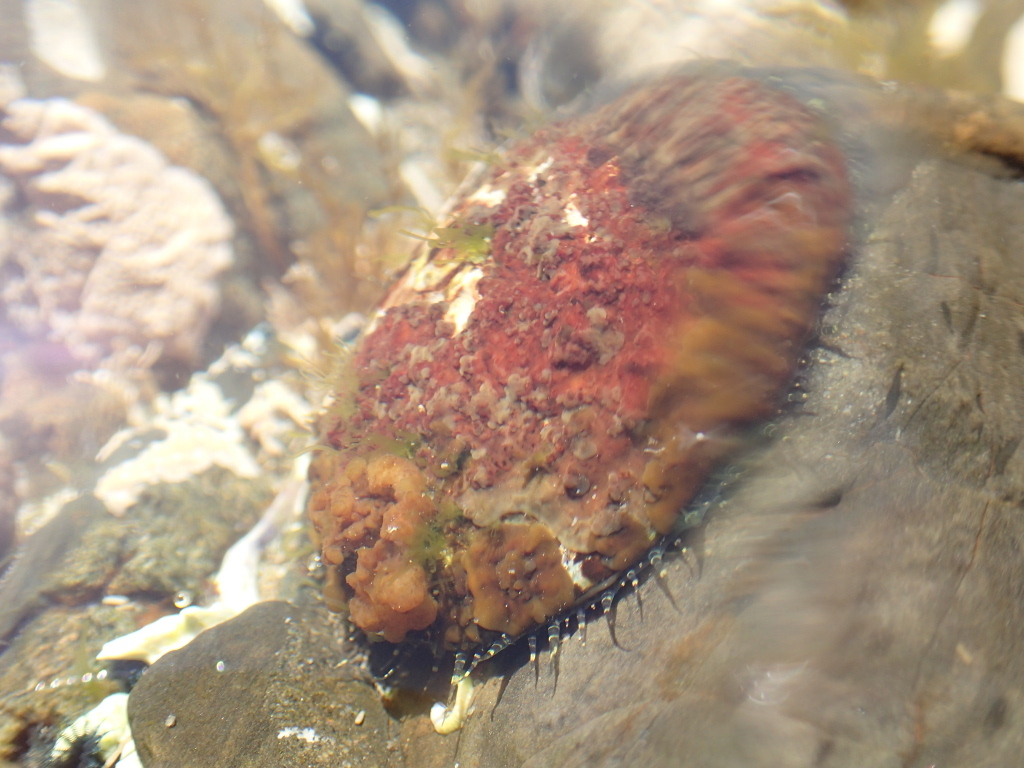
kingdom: Animalia
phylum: Mollusca
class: Gastropoda
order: Lepetellida
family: Haliotidae
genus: Haliotis
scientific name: Haliotis virginea
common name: Whitefoot paua
